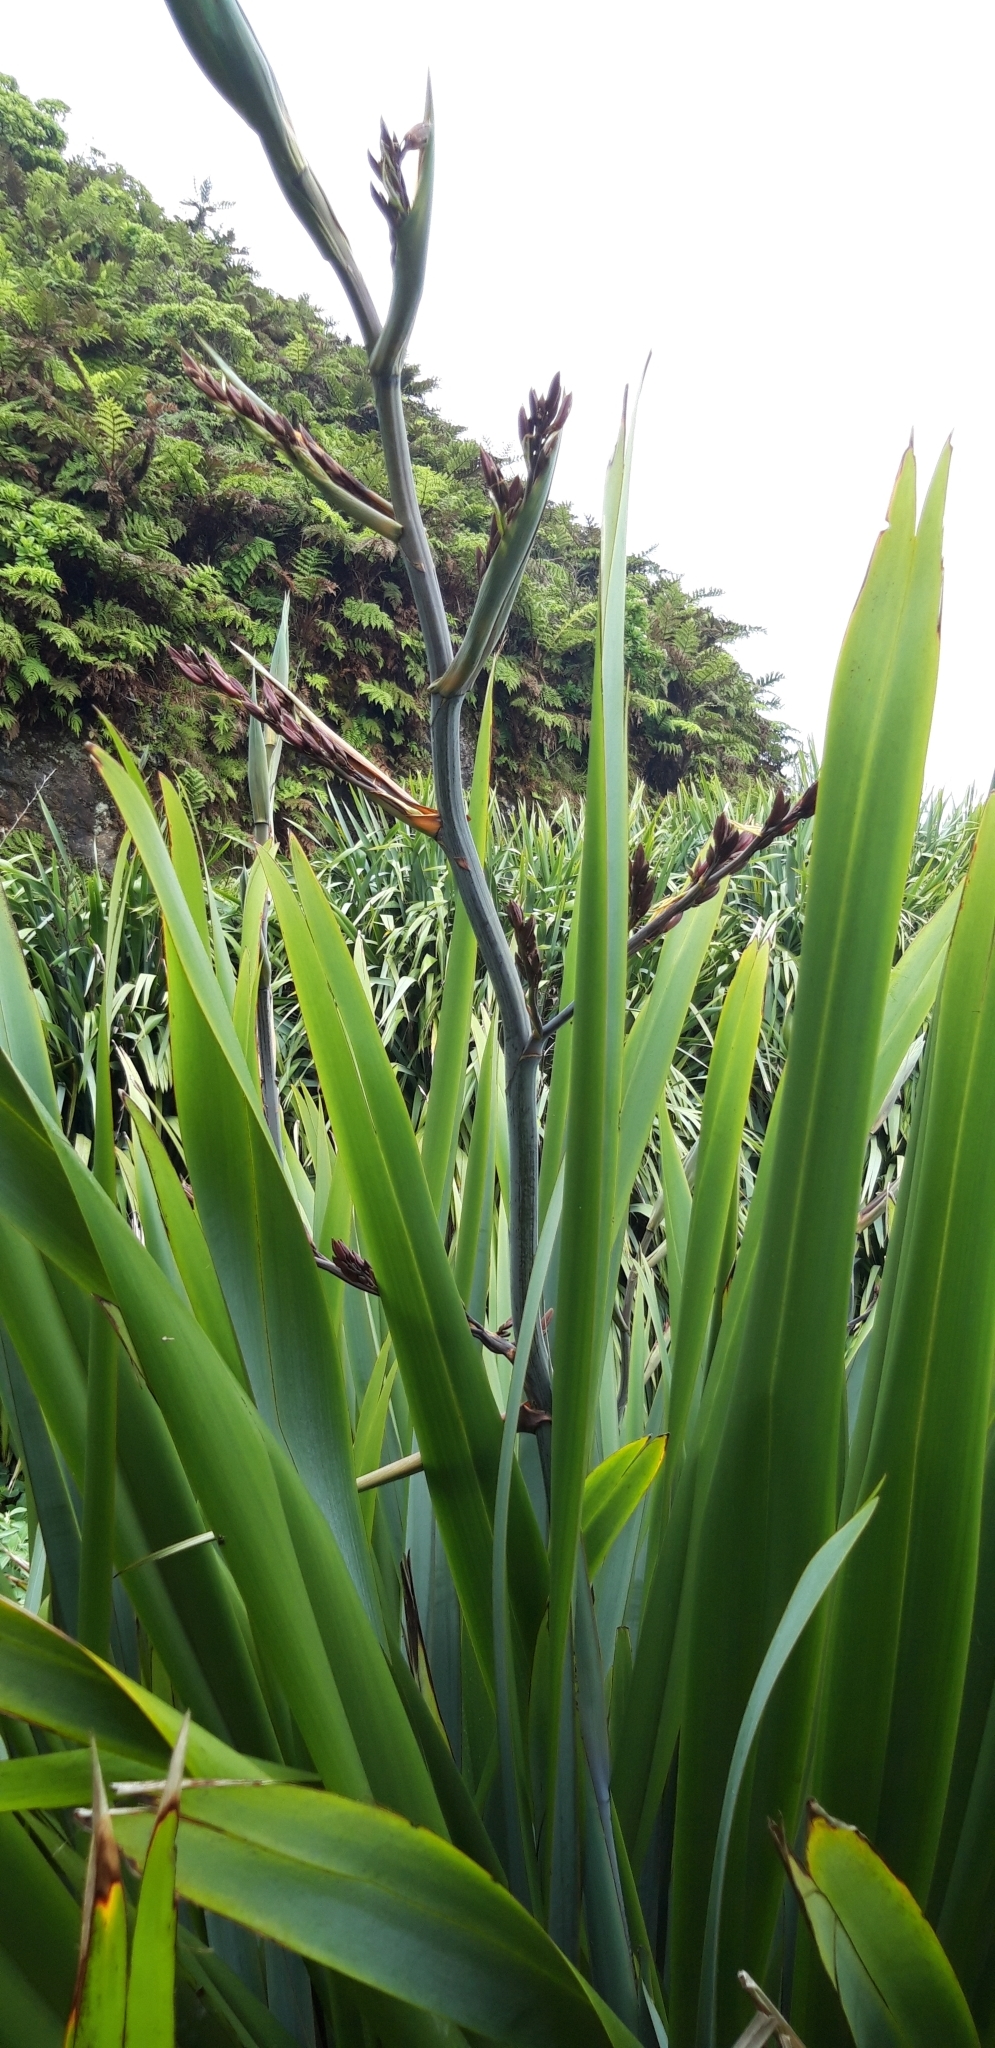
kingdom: Plantae
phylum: Tracheophyta
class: Liliopsida
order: Asparagales
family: Asphodelaceae
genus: Phormium
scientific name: Phormium tenax
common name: New zealand flax
